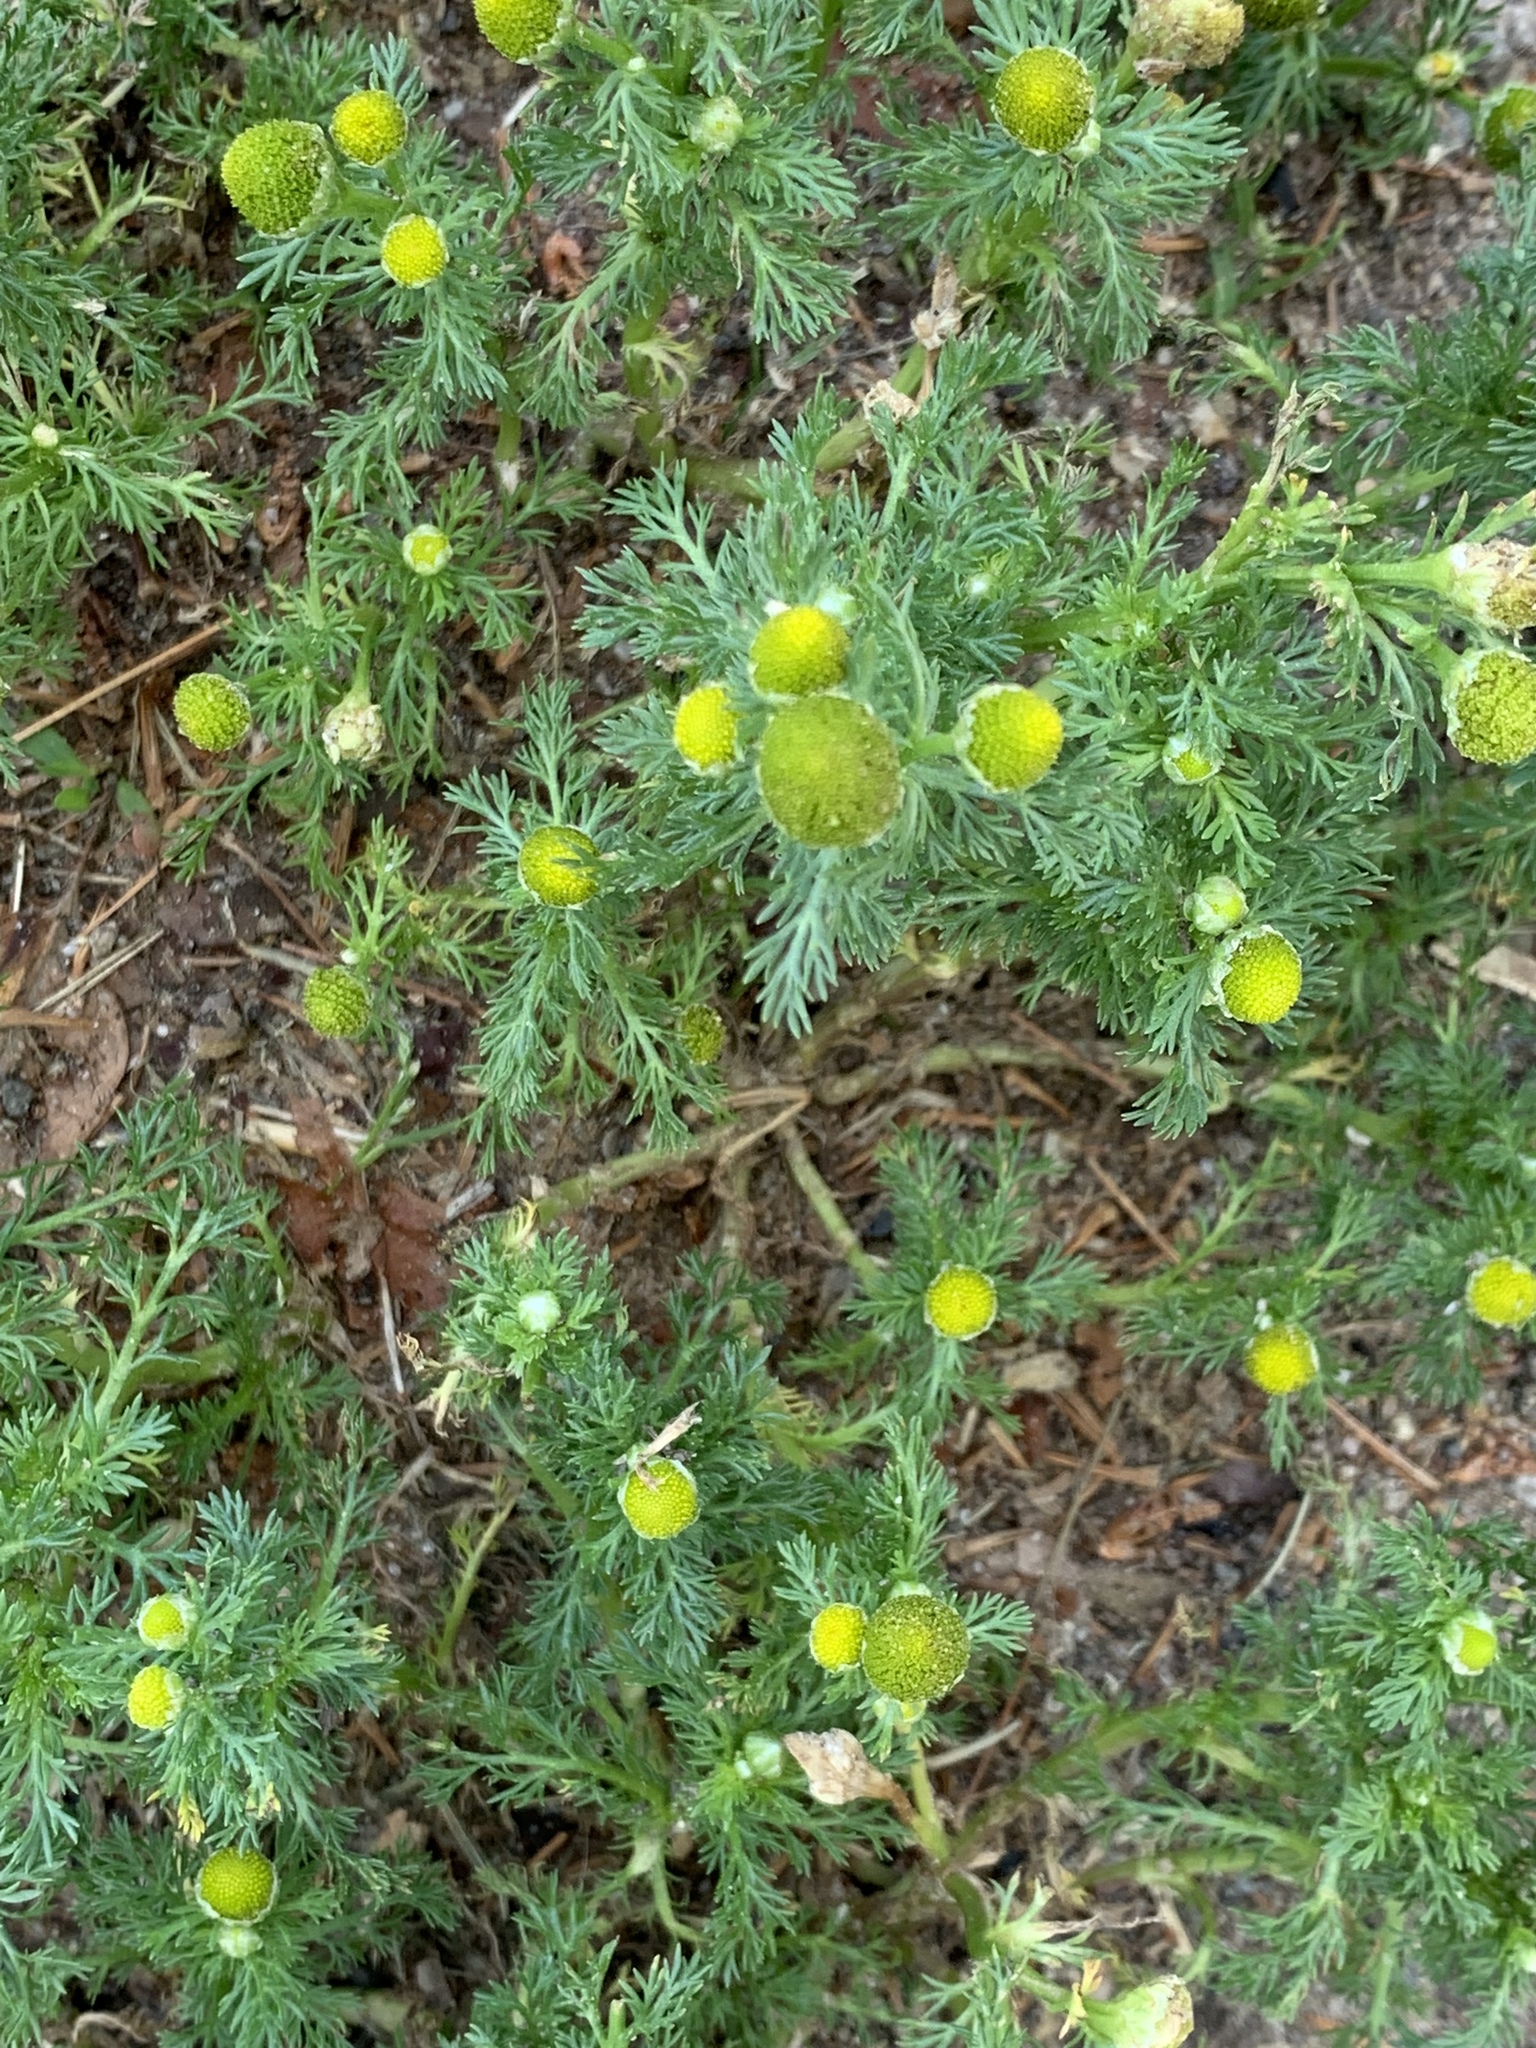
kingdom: Plantae
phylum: Tracheophyta
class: Magnoliopsida
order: Asterales
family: Asteraceae
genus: Matricaria
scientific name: Matricaria discoidea
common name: Disc mayweed
